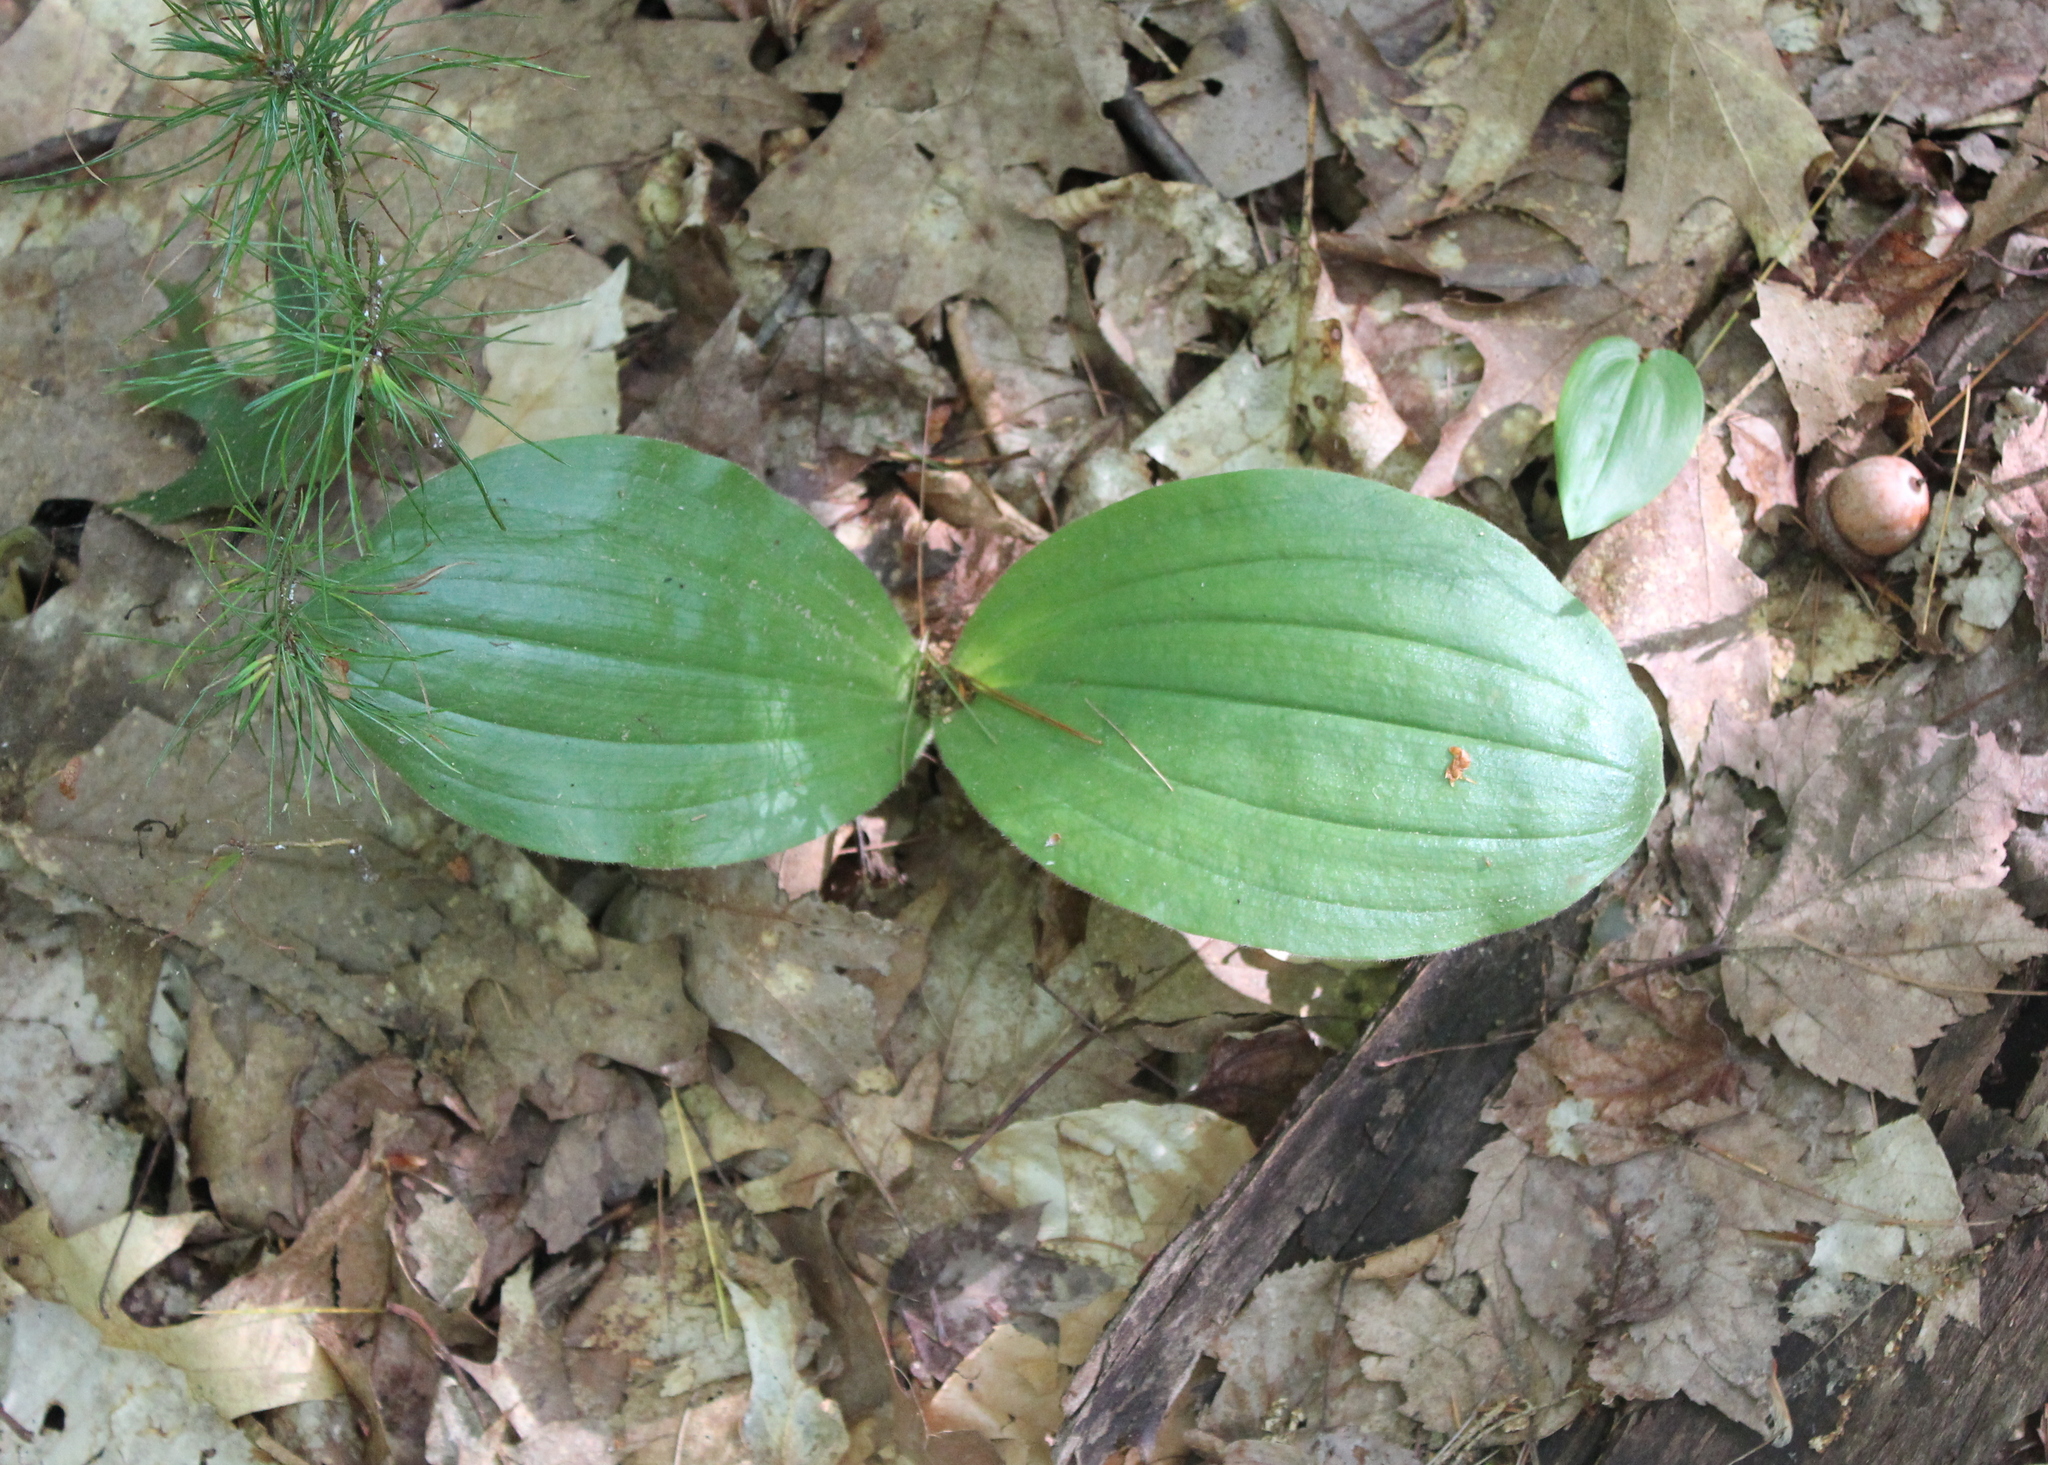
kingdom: Plantae
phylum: Tracheophyta
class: Liliopsida
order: Asparagales
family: Orchidaceae
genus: Cypripedium
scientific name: Cypripedium acaule
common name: Pink lady's-slipper
